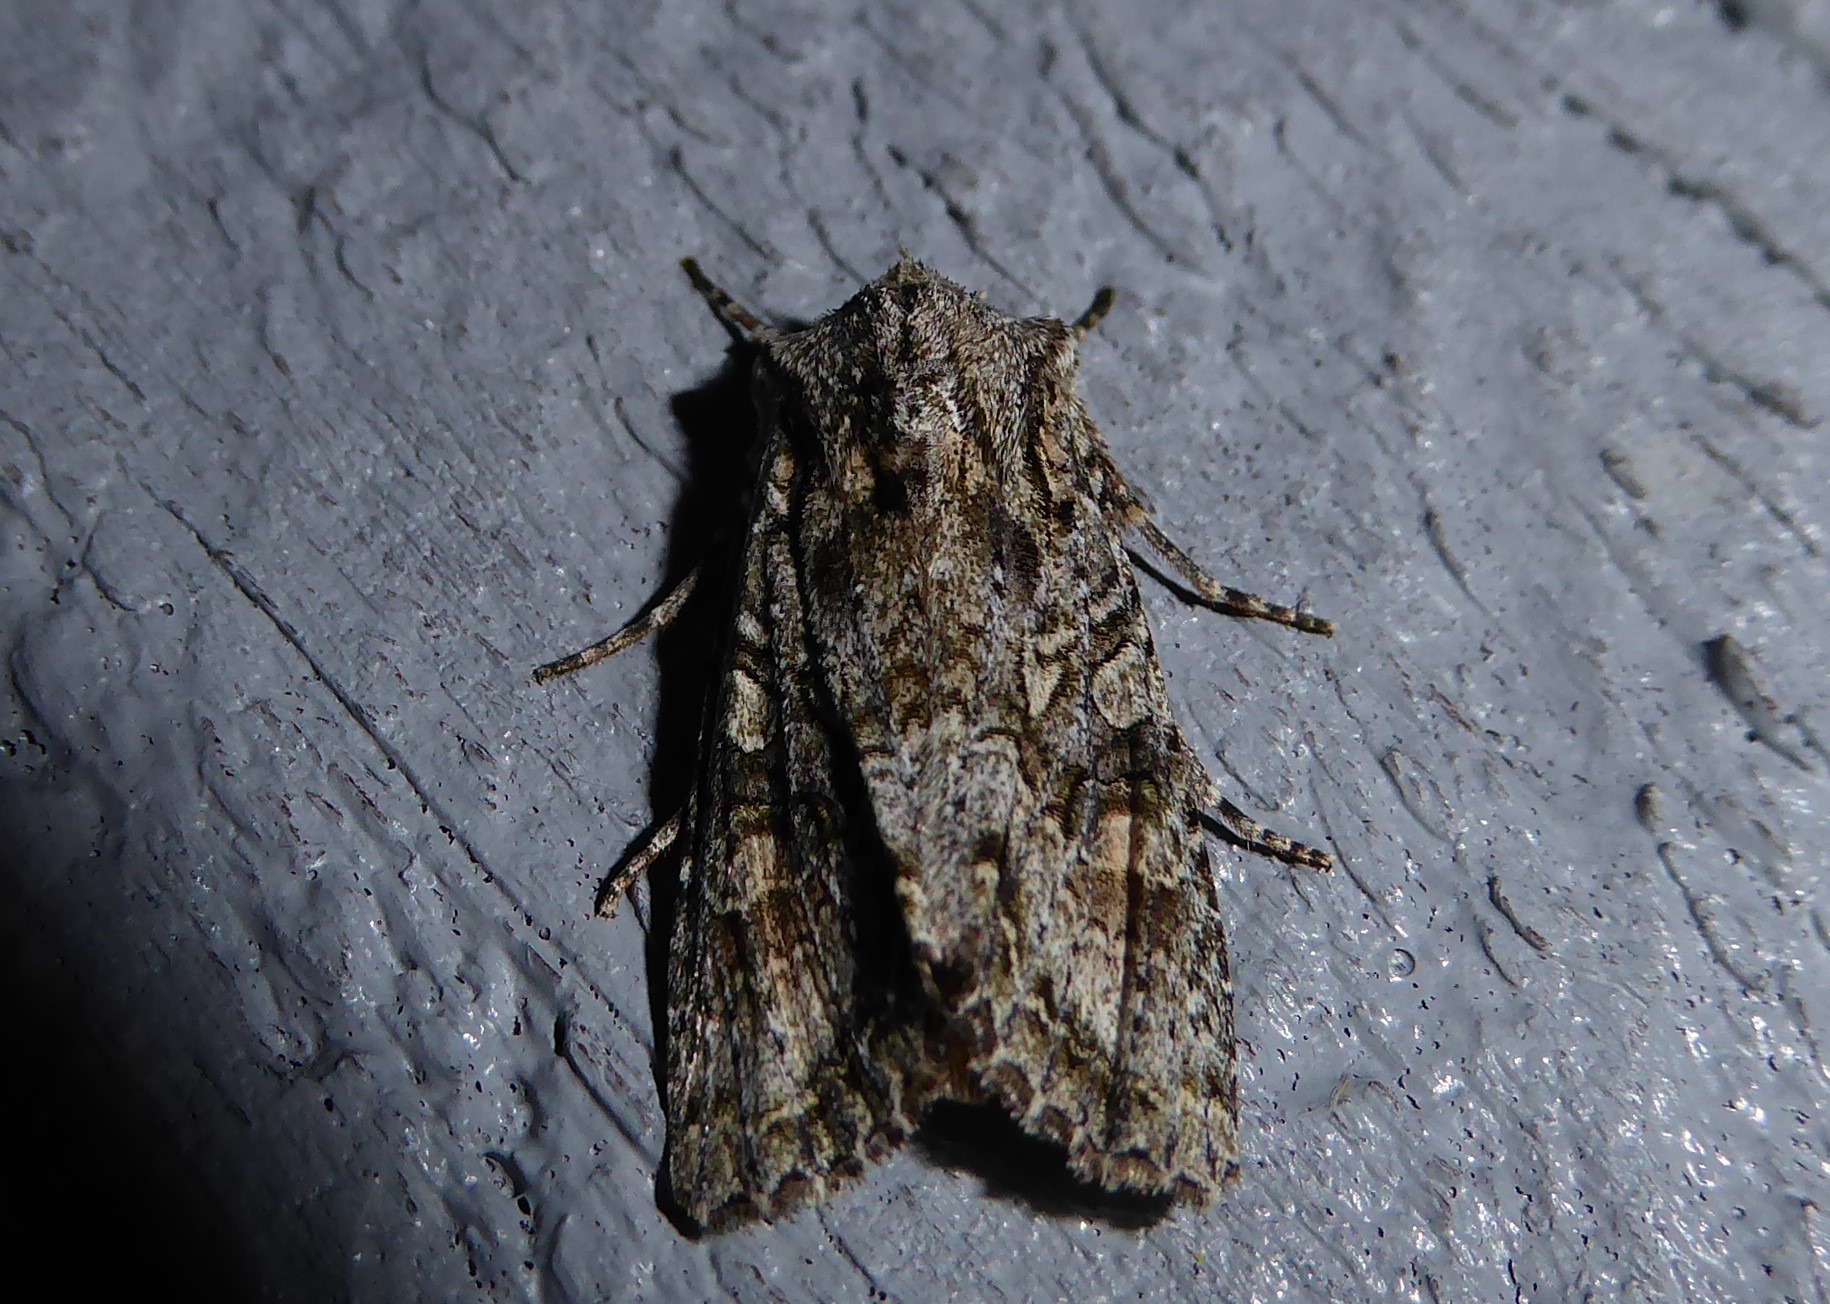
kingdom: Animalia
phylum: Arthropoda
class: Insecta
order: Lepidoptera
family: Noctuidae
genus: Ichneutica
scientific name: Ichneutica mutans
